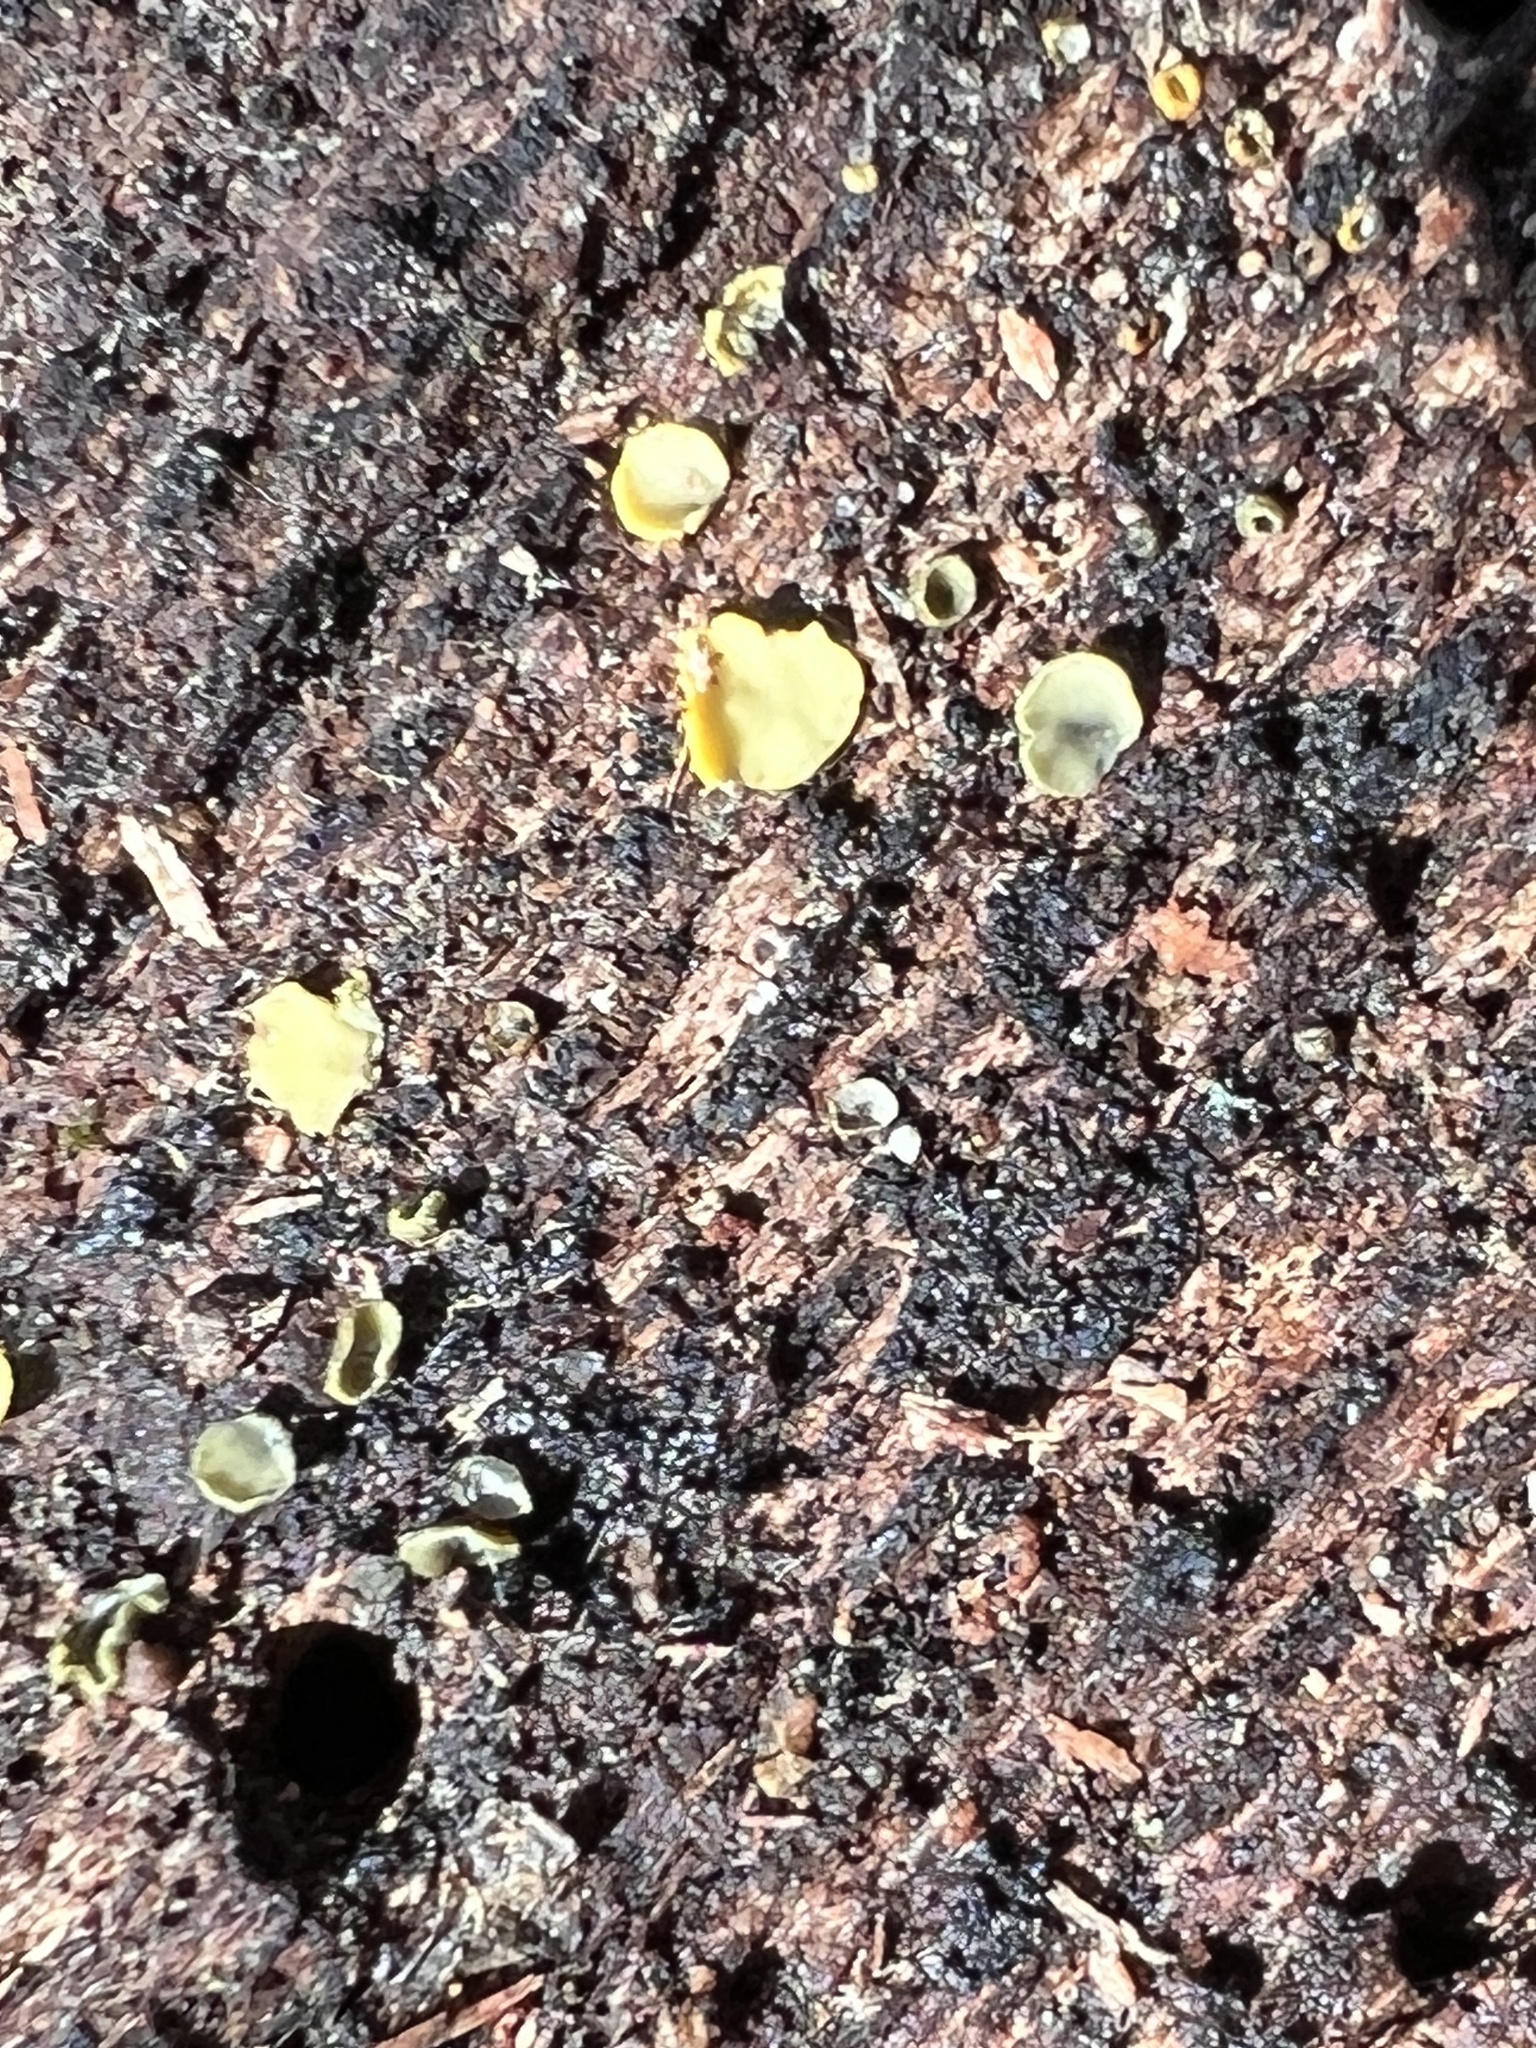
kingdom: Fungi
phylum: Ascomycota
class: Leotiomycetes
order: Helotiales
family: Chlorospleniaceae
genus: Chlorosplenium
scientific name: Chlorosplenium chlora
